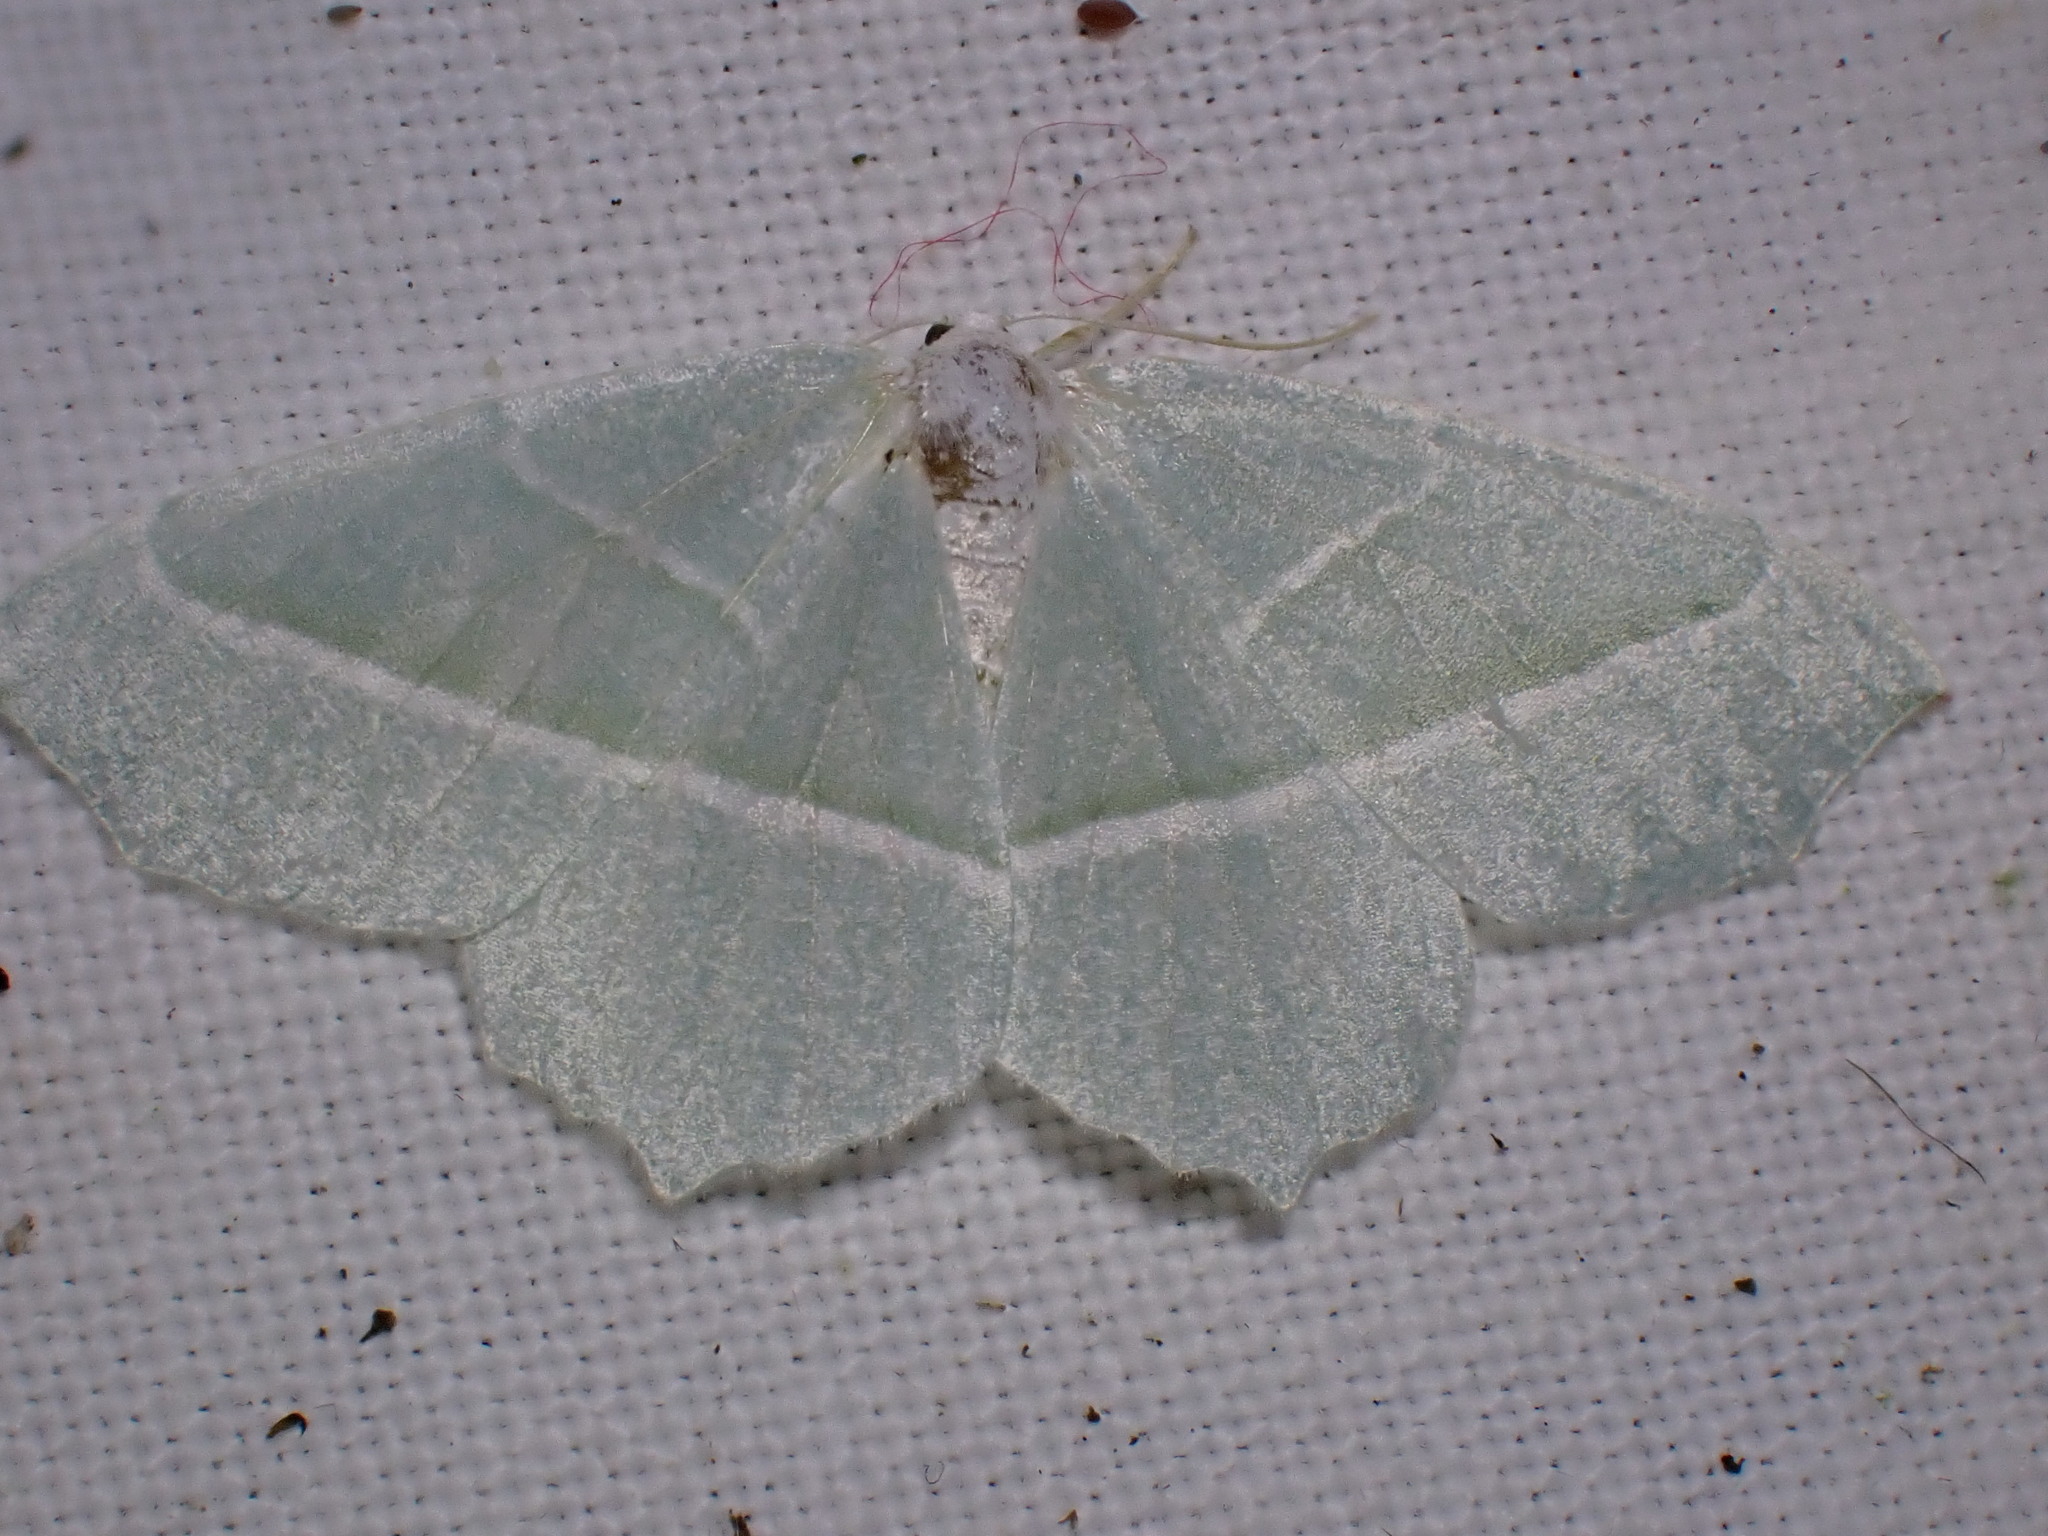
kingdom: Animalia
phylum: Arthropoda
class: Insecta
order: Lepidoptera
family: Geometridae
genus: Campaea
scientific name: Campaea margaritaria
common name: Light emerald
